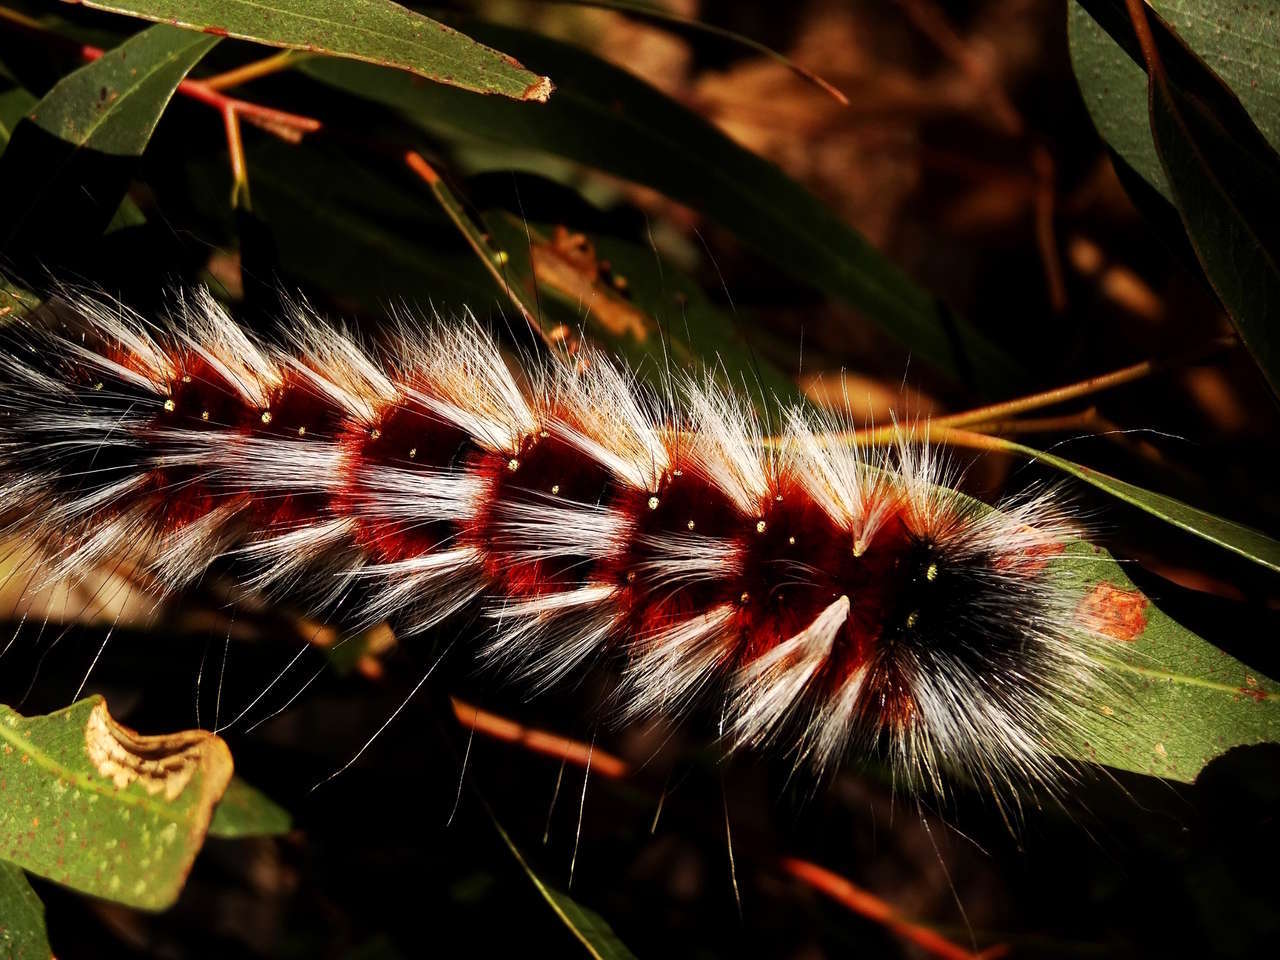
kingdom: Animalia
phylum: Arthropoda
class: Insecta
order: Lepidoptera
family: Anthelidae
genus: Anthela
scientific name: Anthela varia
